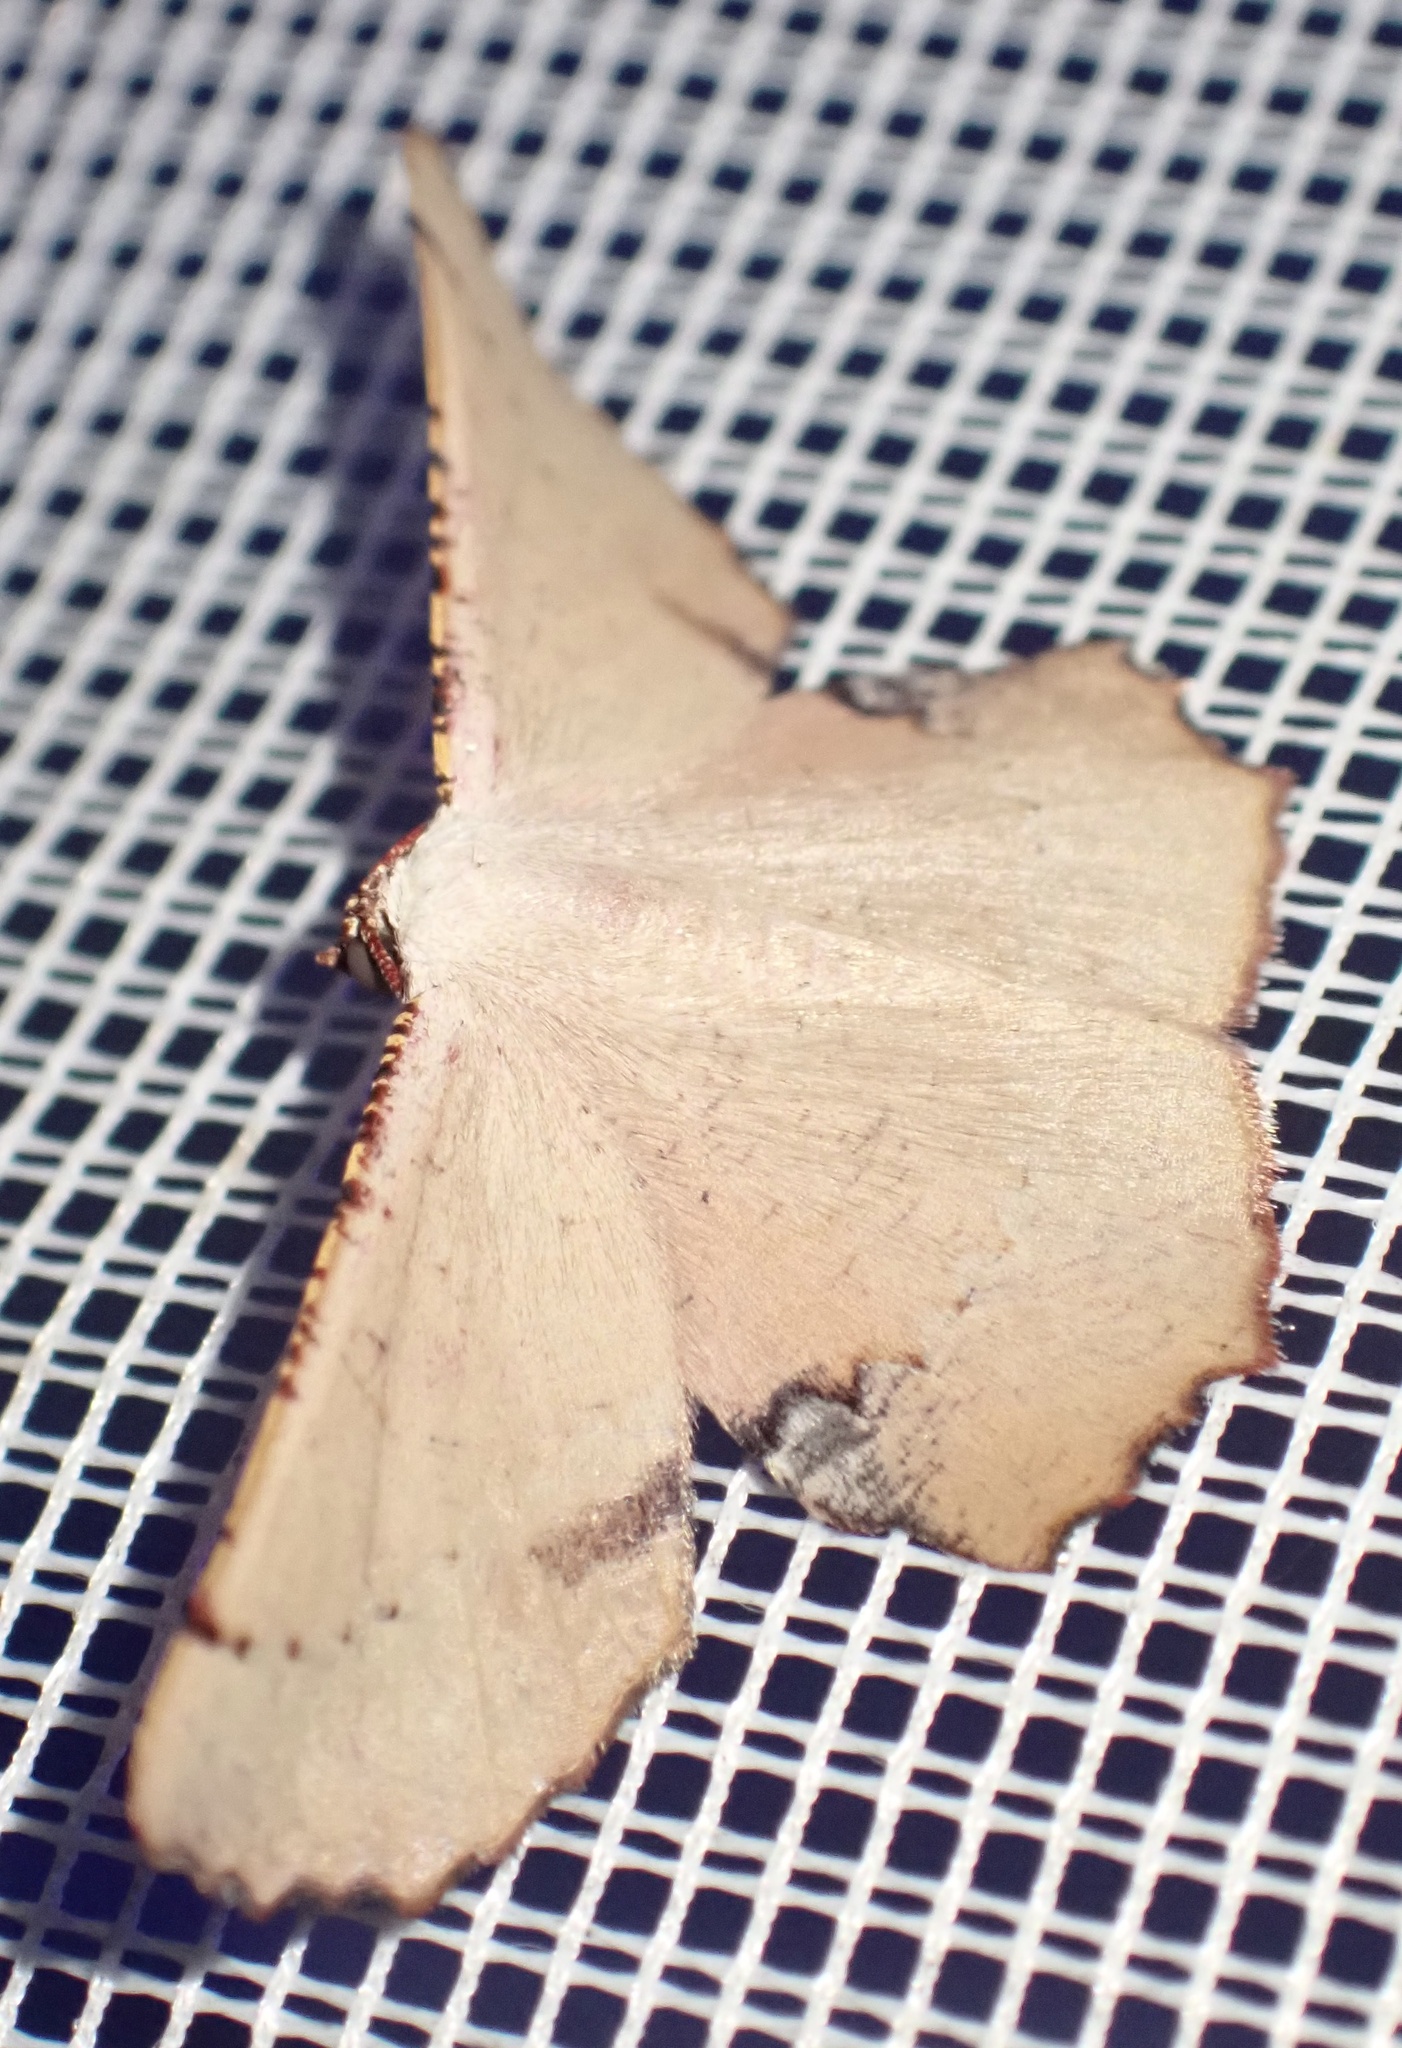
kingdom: Animalia
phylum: Arthropoda
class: Insecta
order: Lepidoptera
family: Geometridae
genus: Cernia
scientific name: Cernia amyclaria
